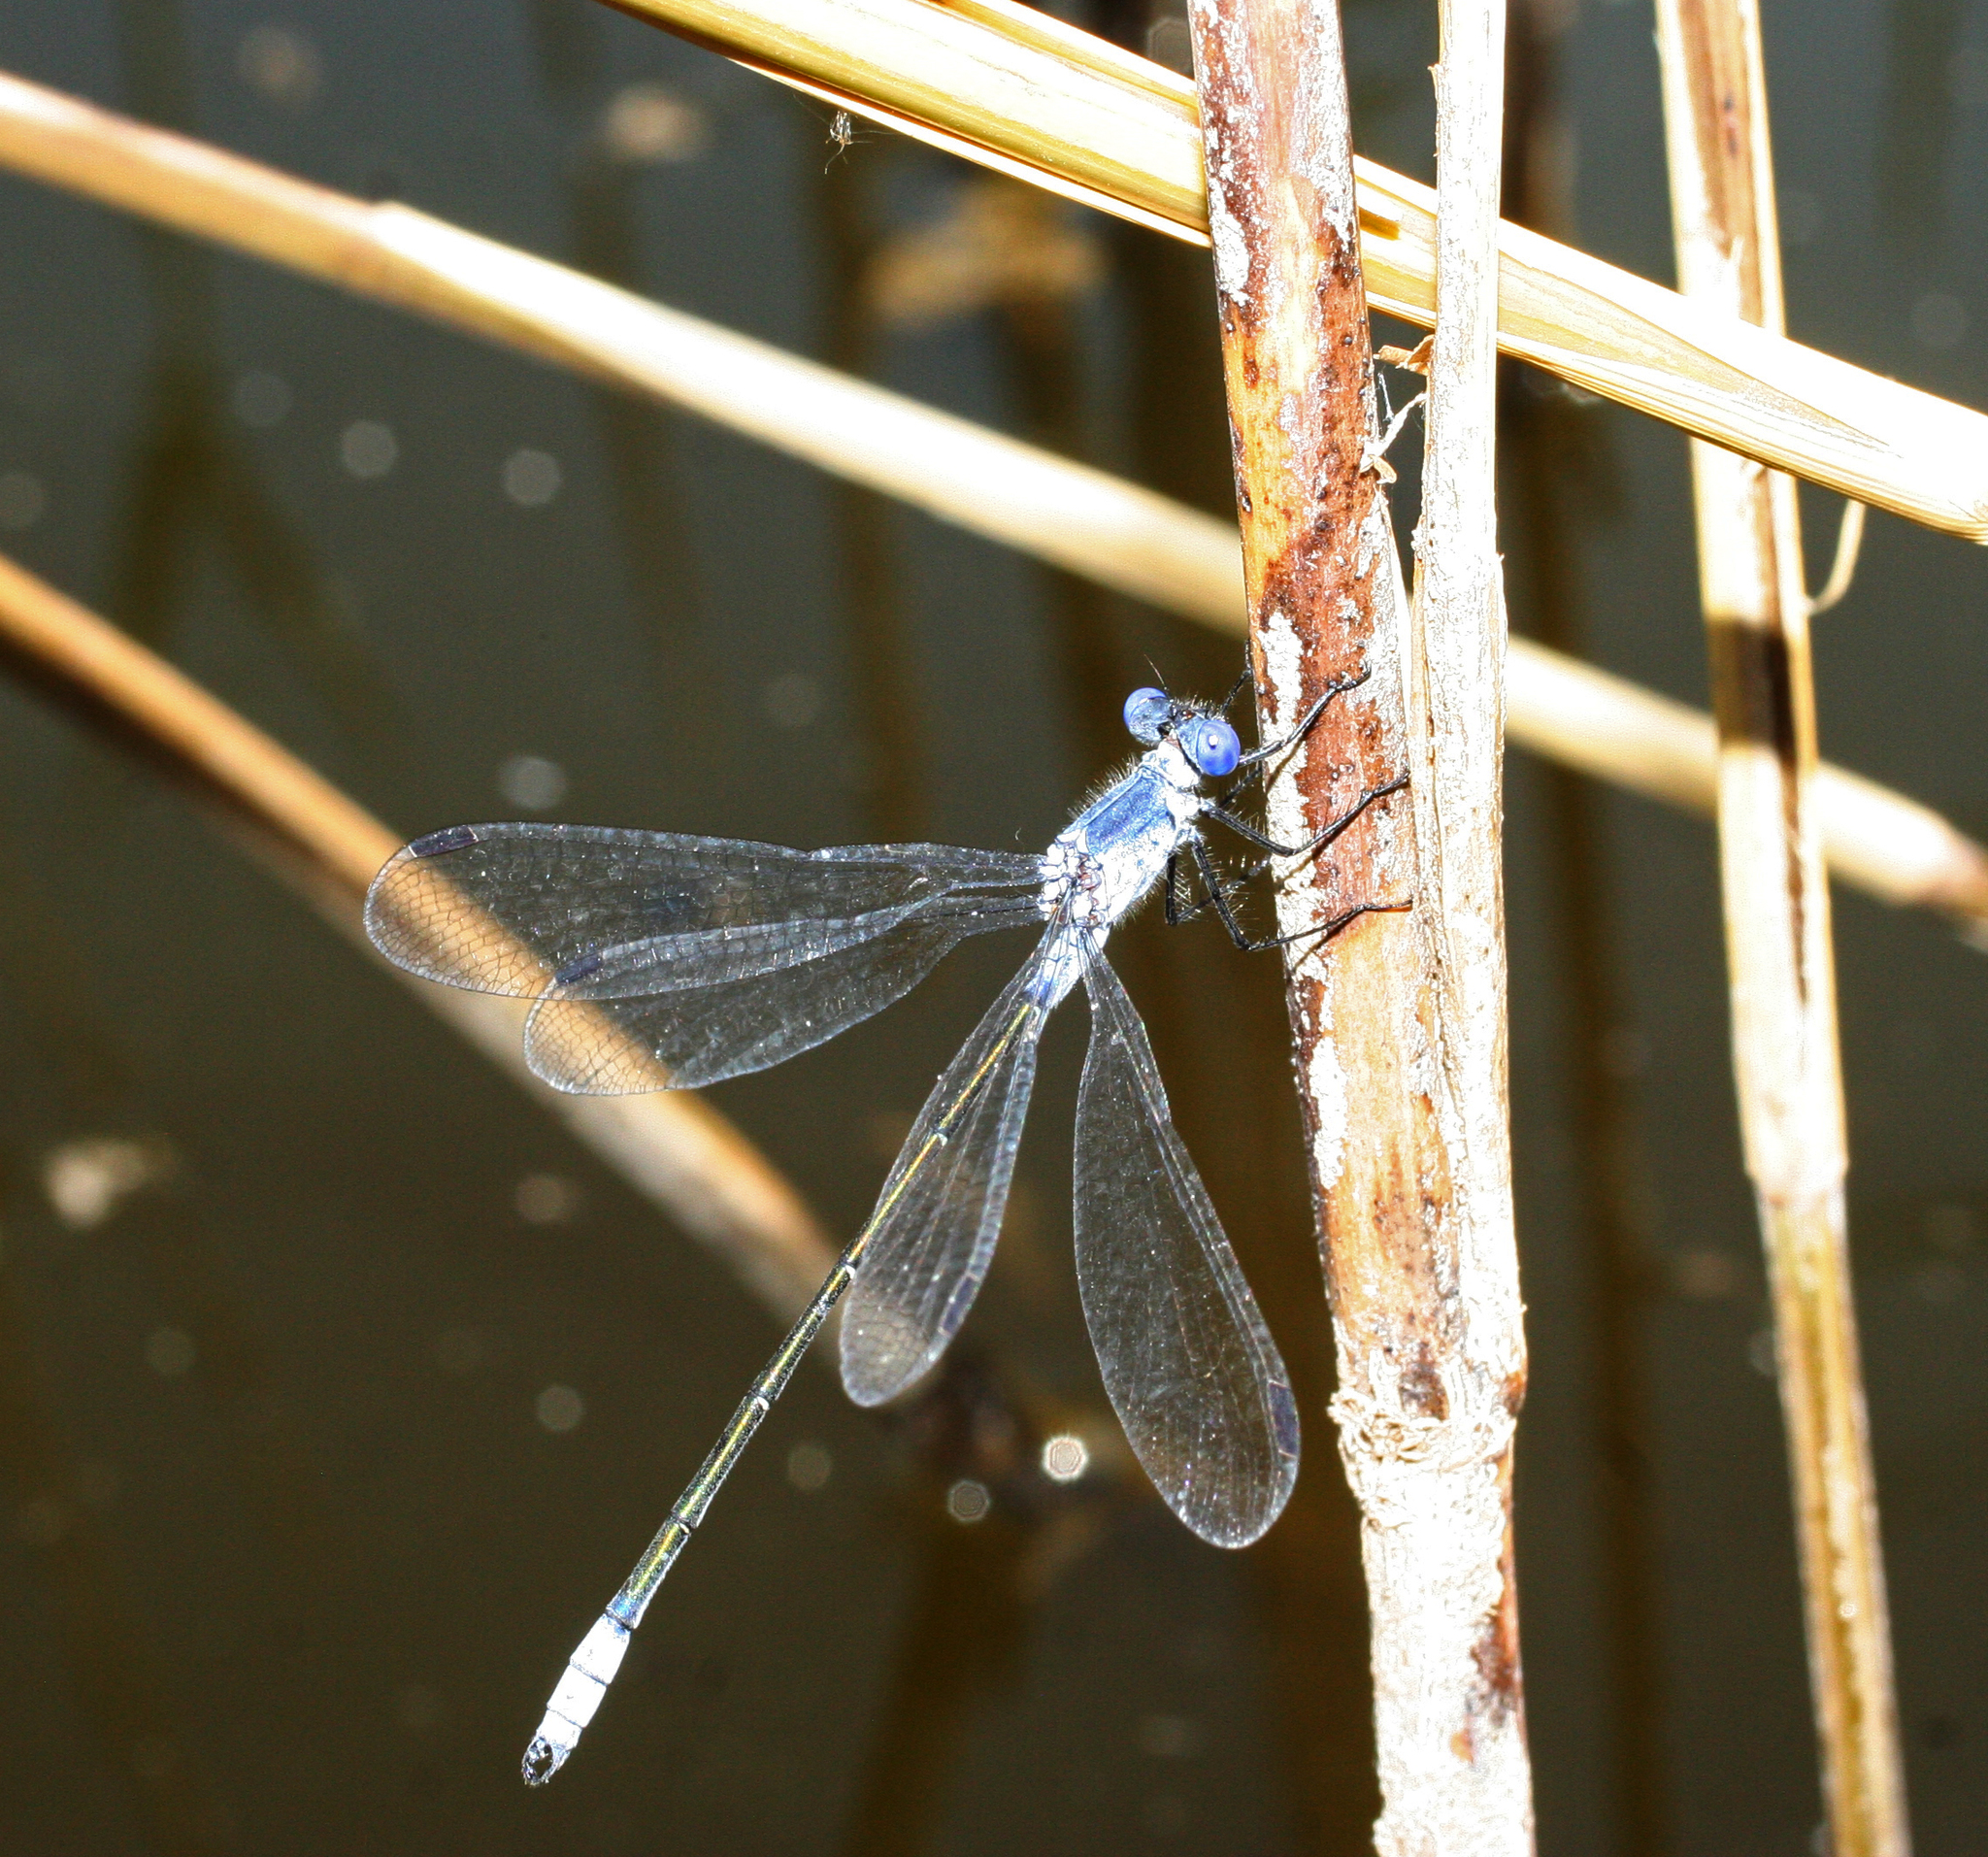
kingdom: Animalia
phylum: Arthropoda
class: Insecta
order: Odonata
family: Lestidae
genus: Lestes
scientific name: Lestes macrostigma
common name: Dark spreadwing
